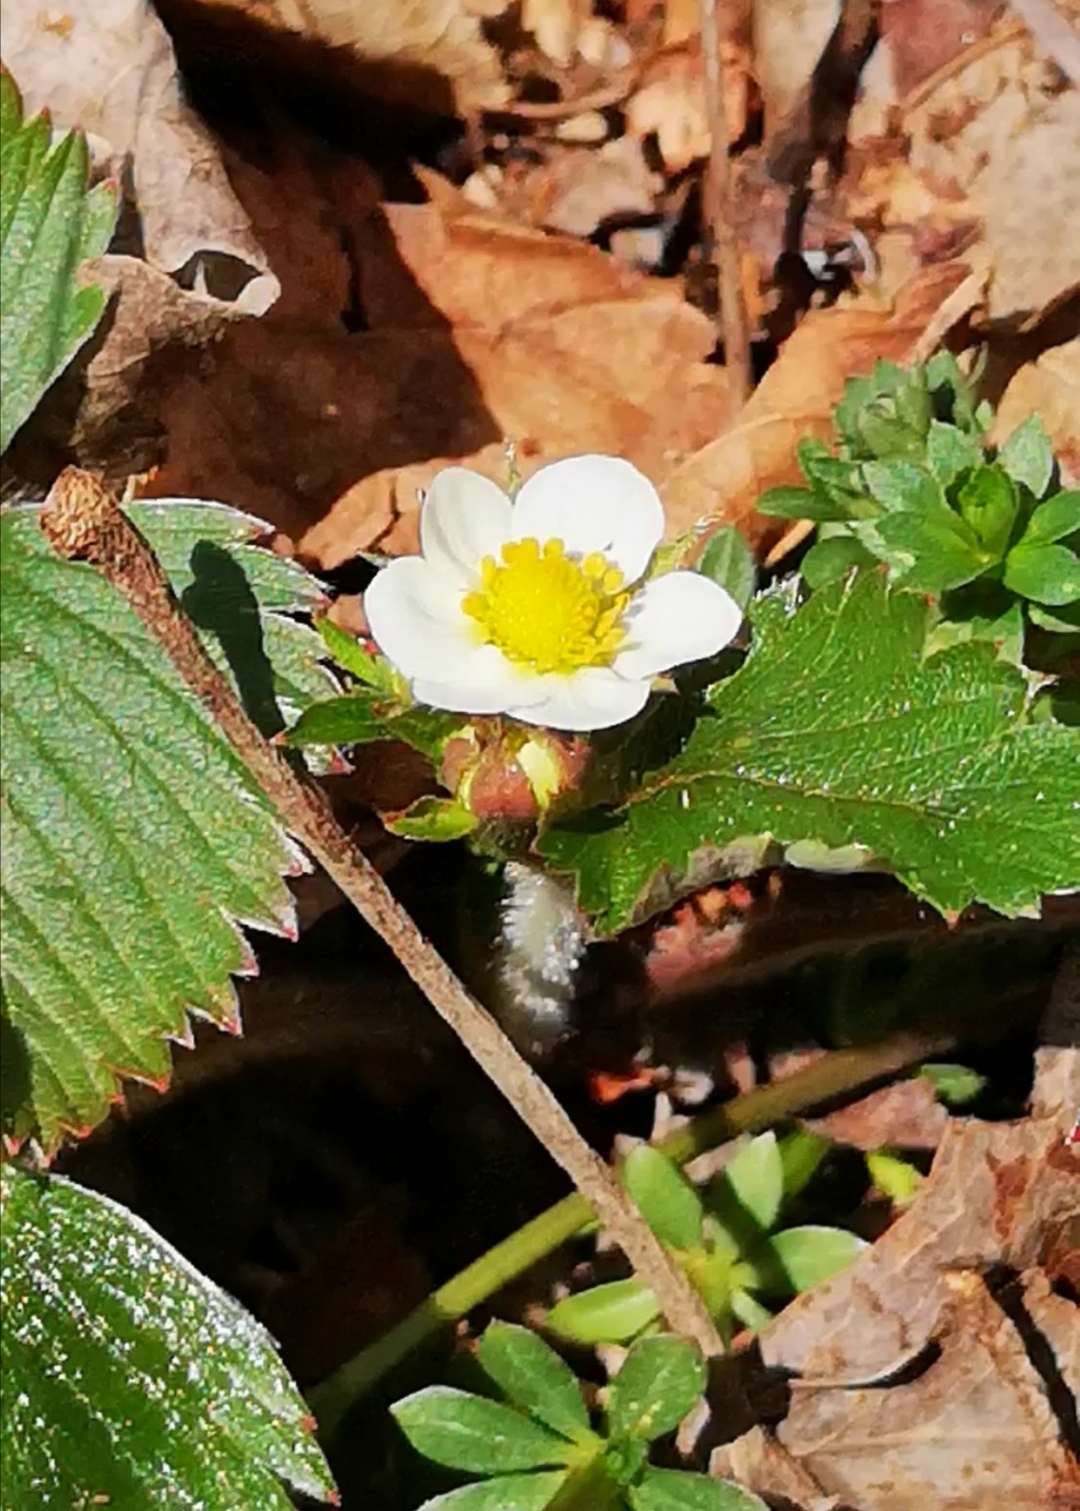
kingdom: Plantae
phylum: Tracheophyta
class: Magnoliopsida
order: Rosales
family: Rosaceae
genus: Fragaria
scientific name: Fragaria vesca
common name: Wild strawberry
